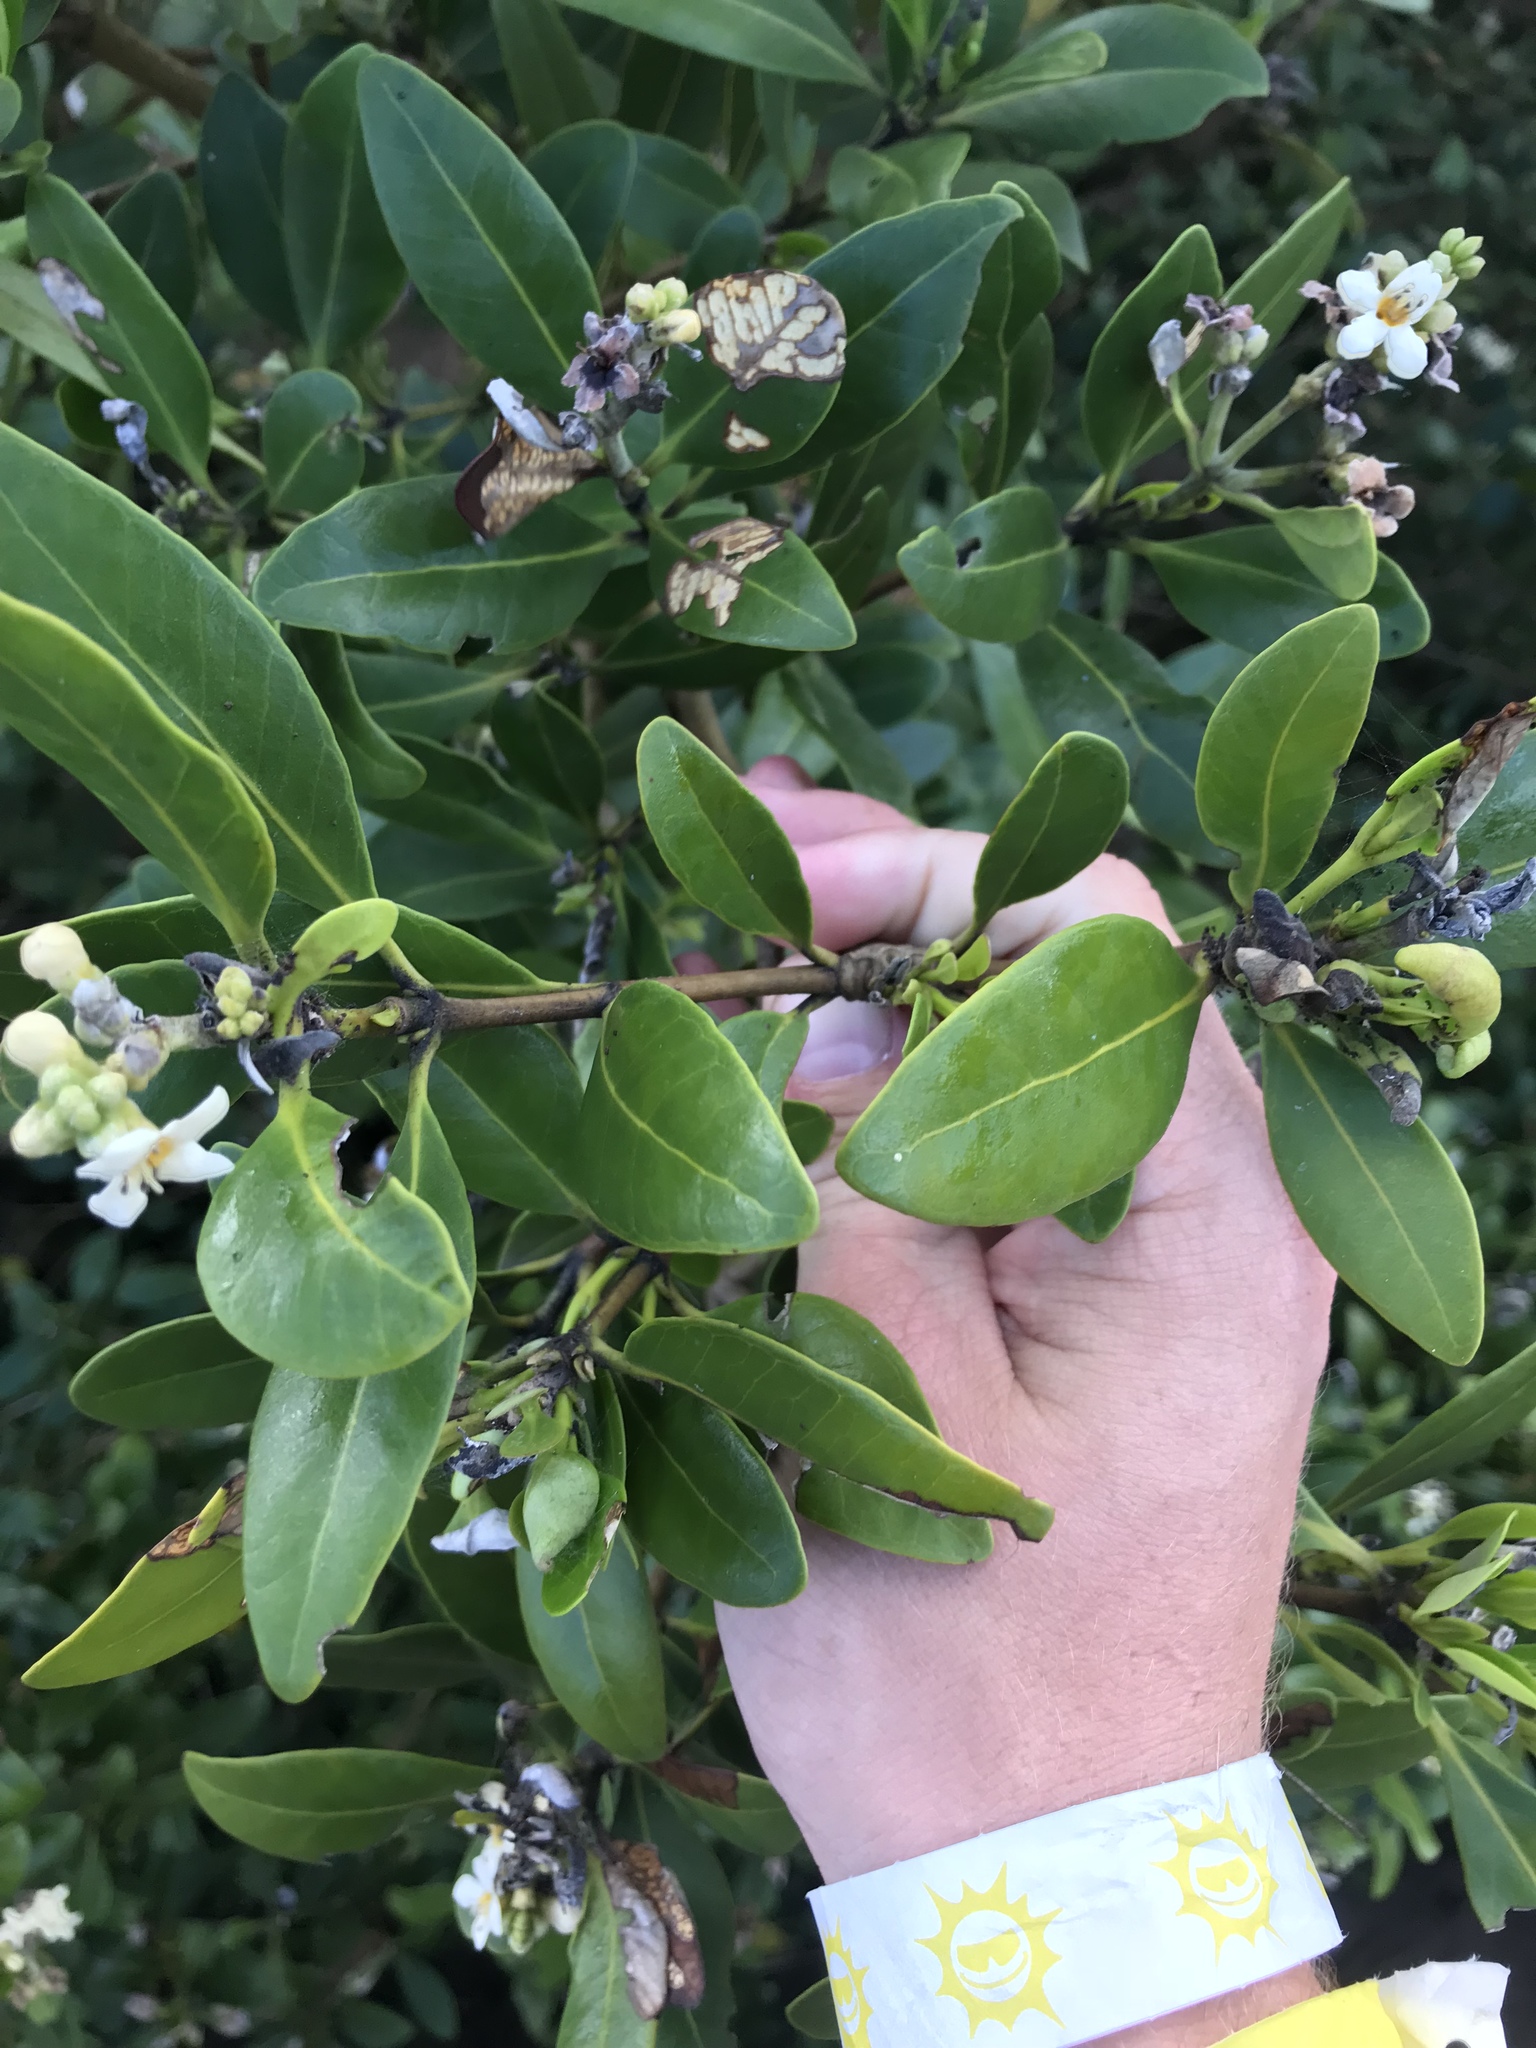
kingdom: Plantae
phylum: Tracheophyta
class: Magnoliopsida
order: Lamiales
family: Acanthaceae
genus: Avicennia
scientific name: Avicennia germinans
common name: Black mangrove
